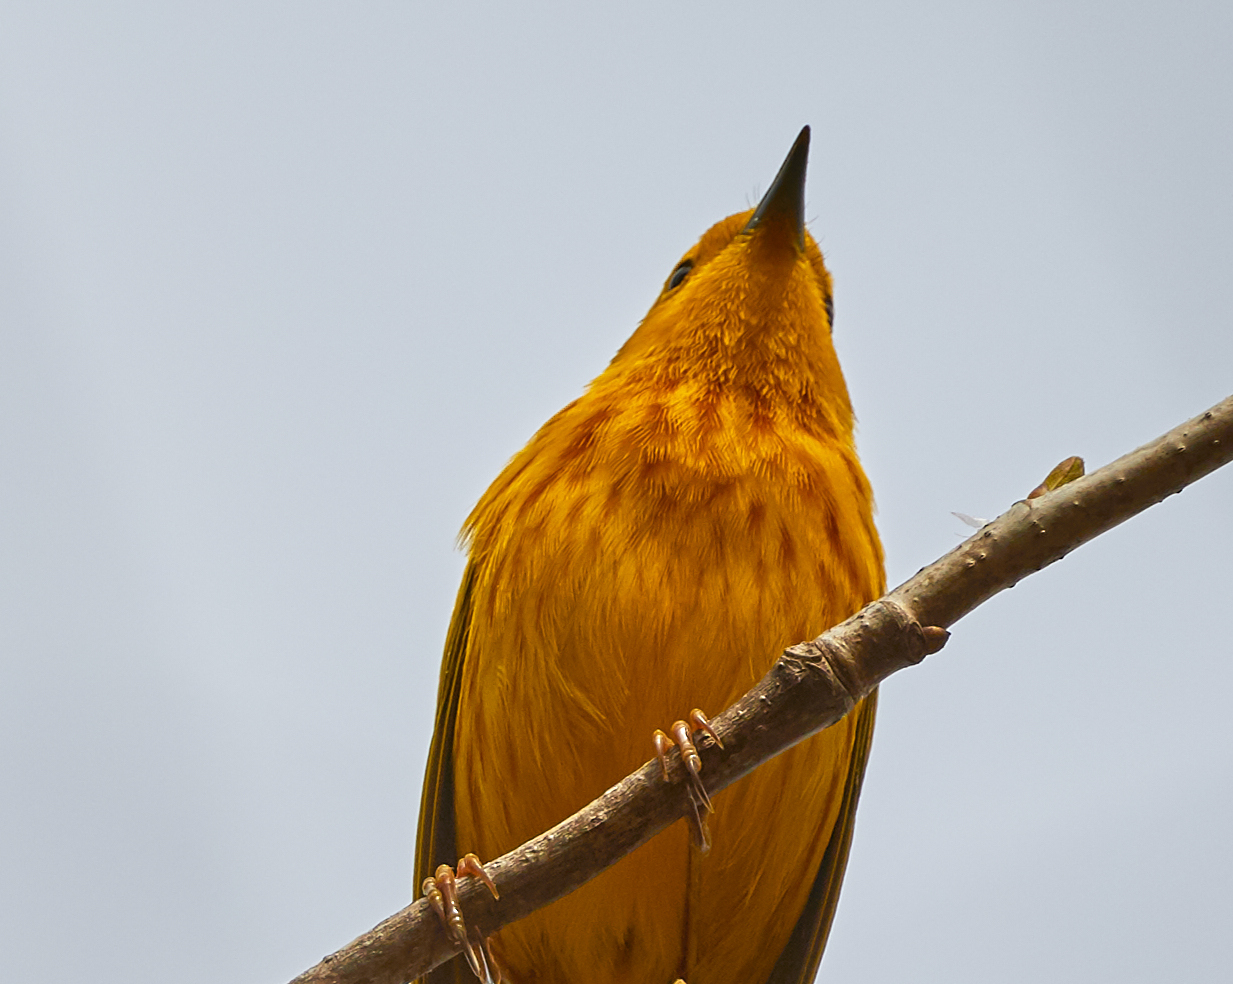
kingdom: Animalia
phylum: Chordata
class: Aves
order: Passeriformes
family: Parulidae
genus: Setophaga
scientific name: Setophaga petechia
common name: Yellow warbler
